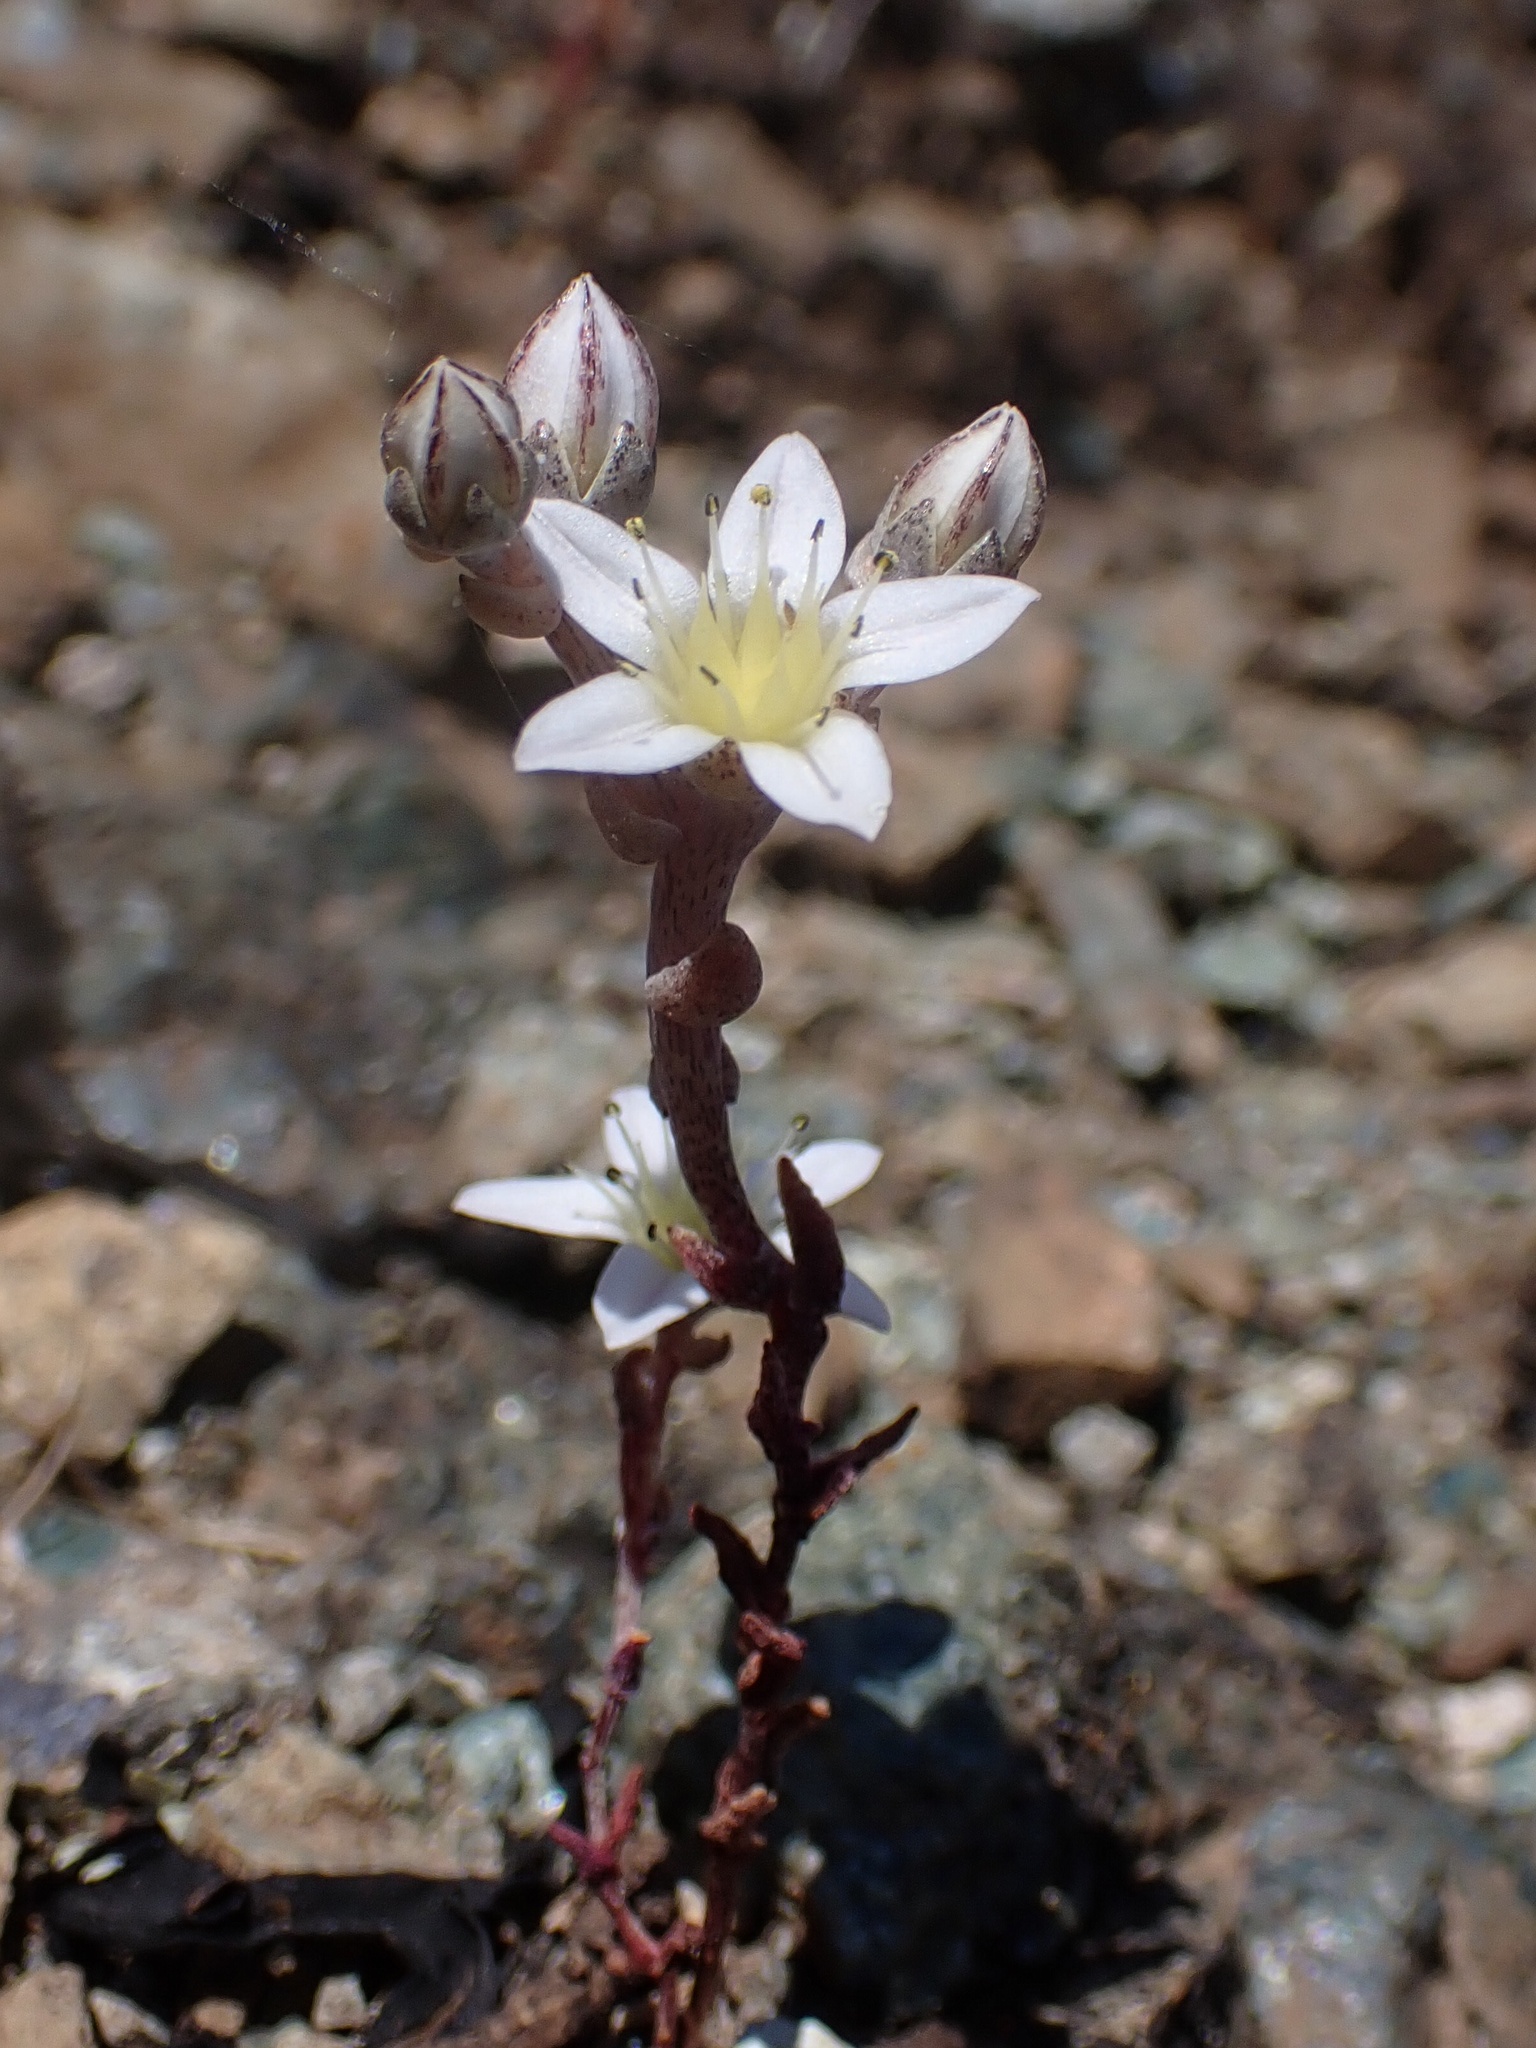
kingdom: Plantae
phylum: Tracheophyta
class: Magnoliopsida
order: Saxifragales
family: Crassulaceae
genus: Dudleya
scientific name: Dudleya blochmaniae
